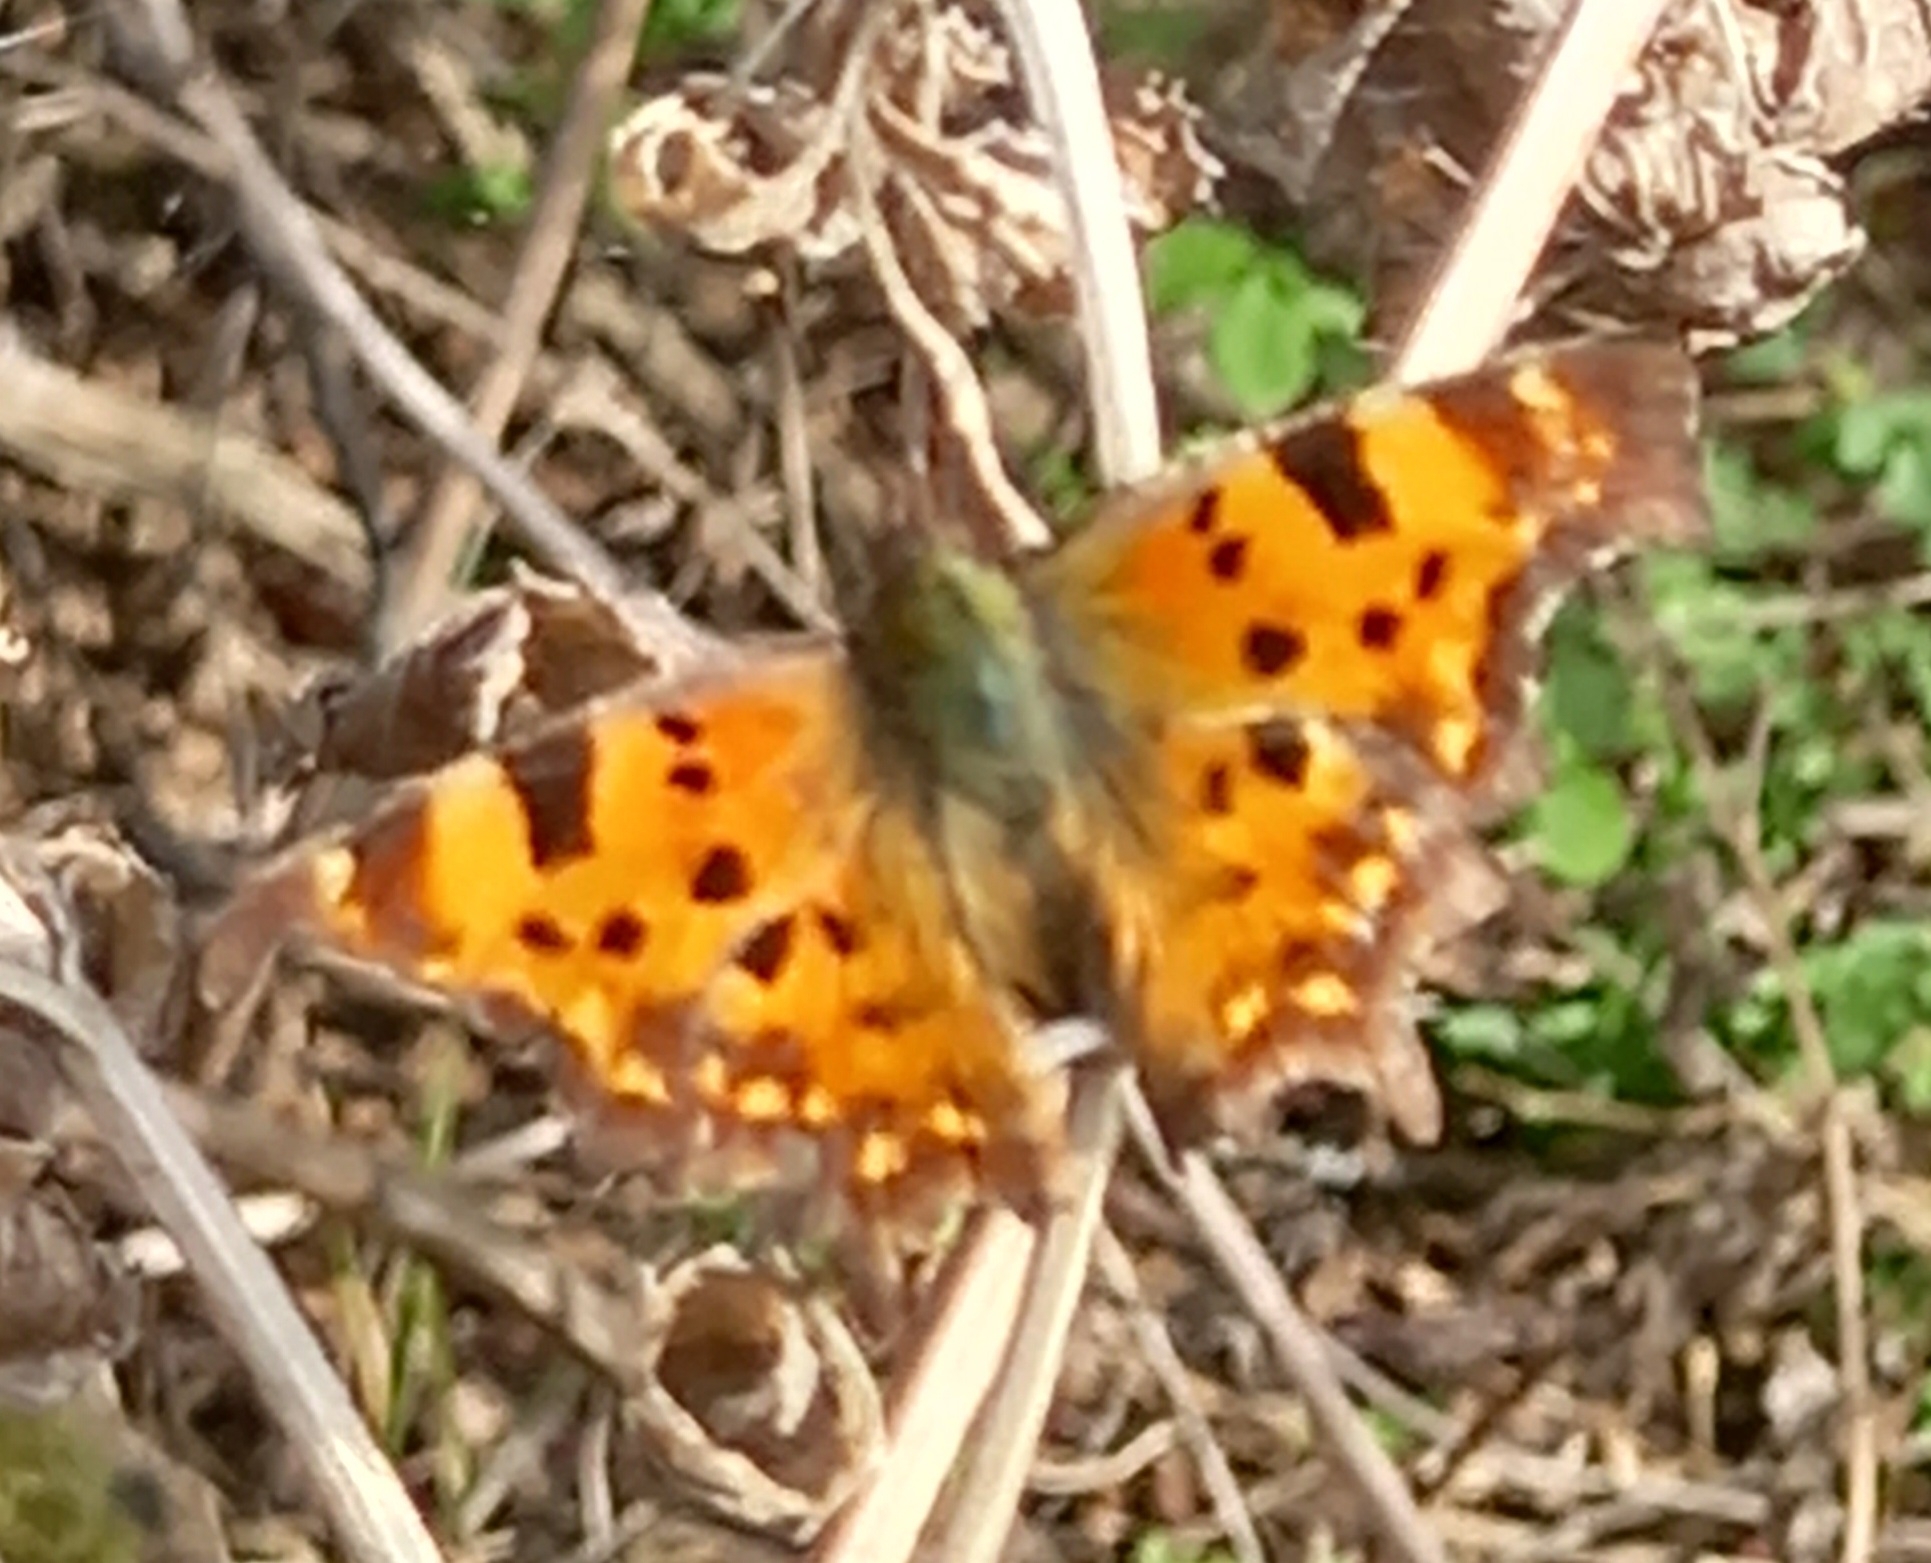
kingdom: Animalia
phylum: Arthropoda
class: Insecta
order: Lepidoptera
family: Nymphalidae
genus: Polygonia
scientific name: Polygonia c-album
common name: Comma
